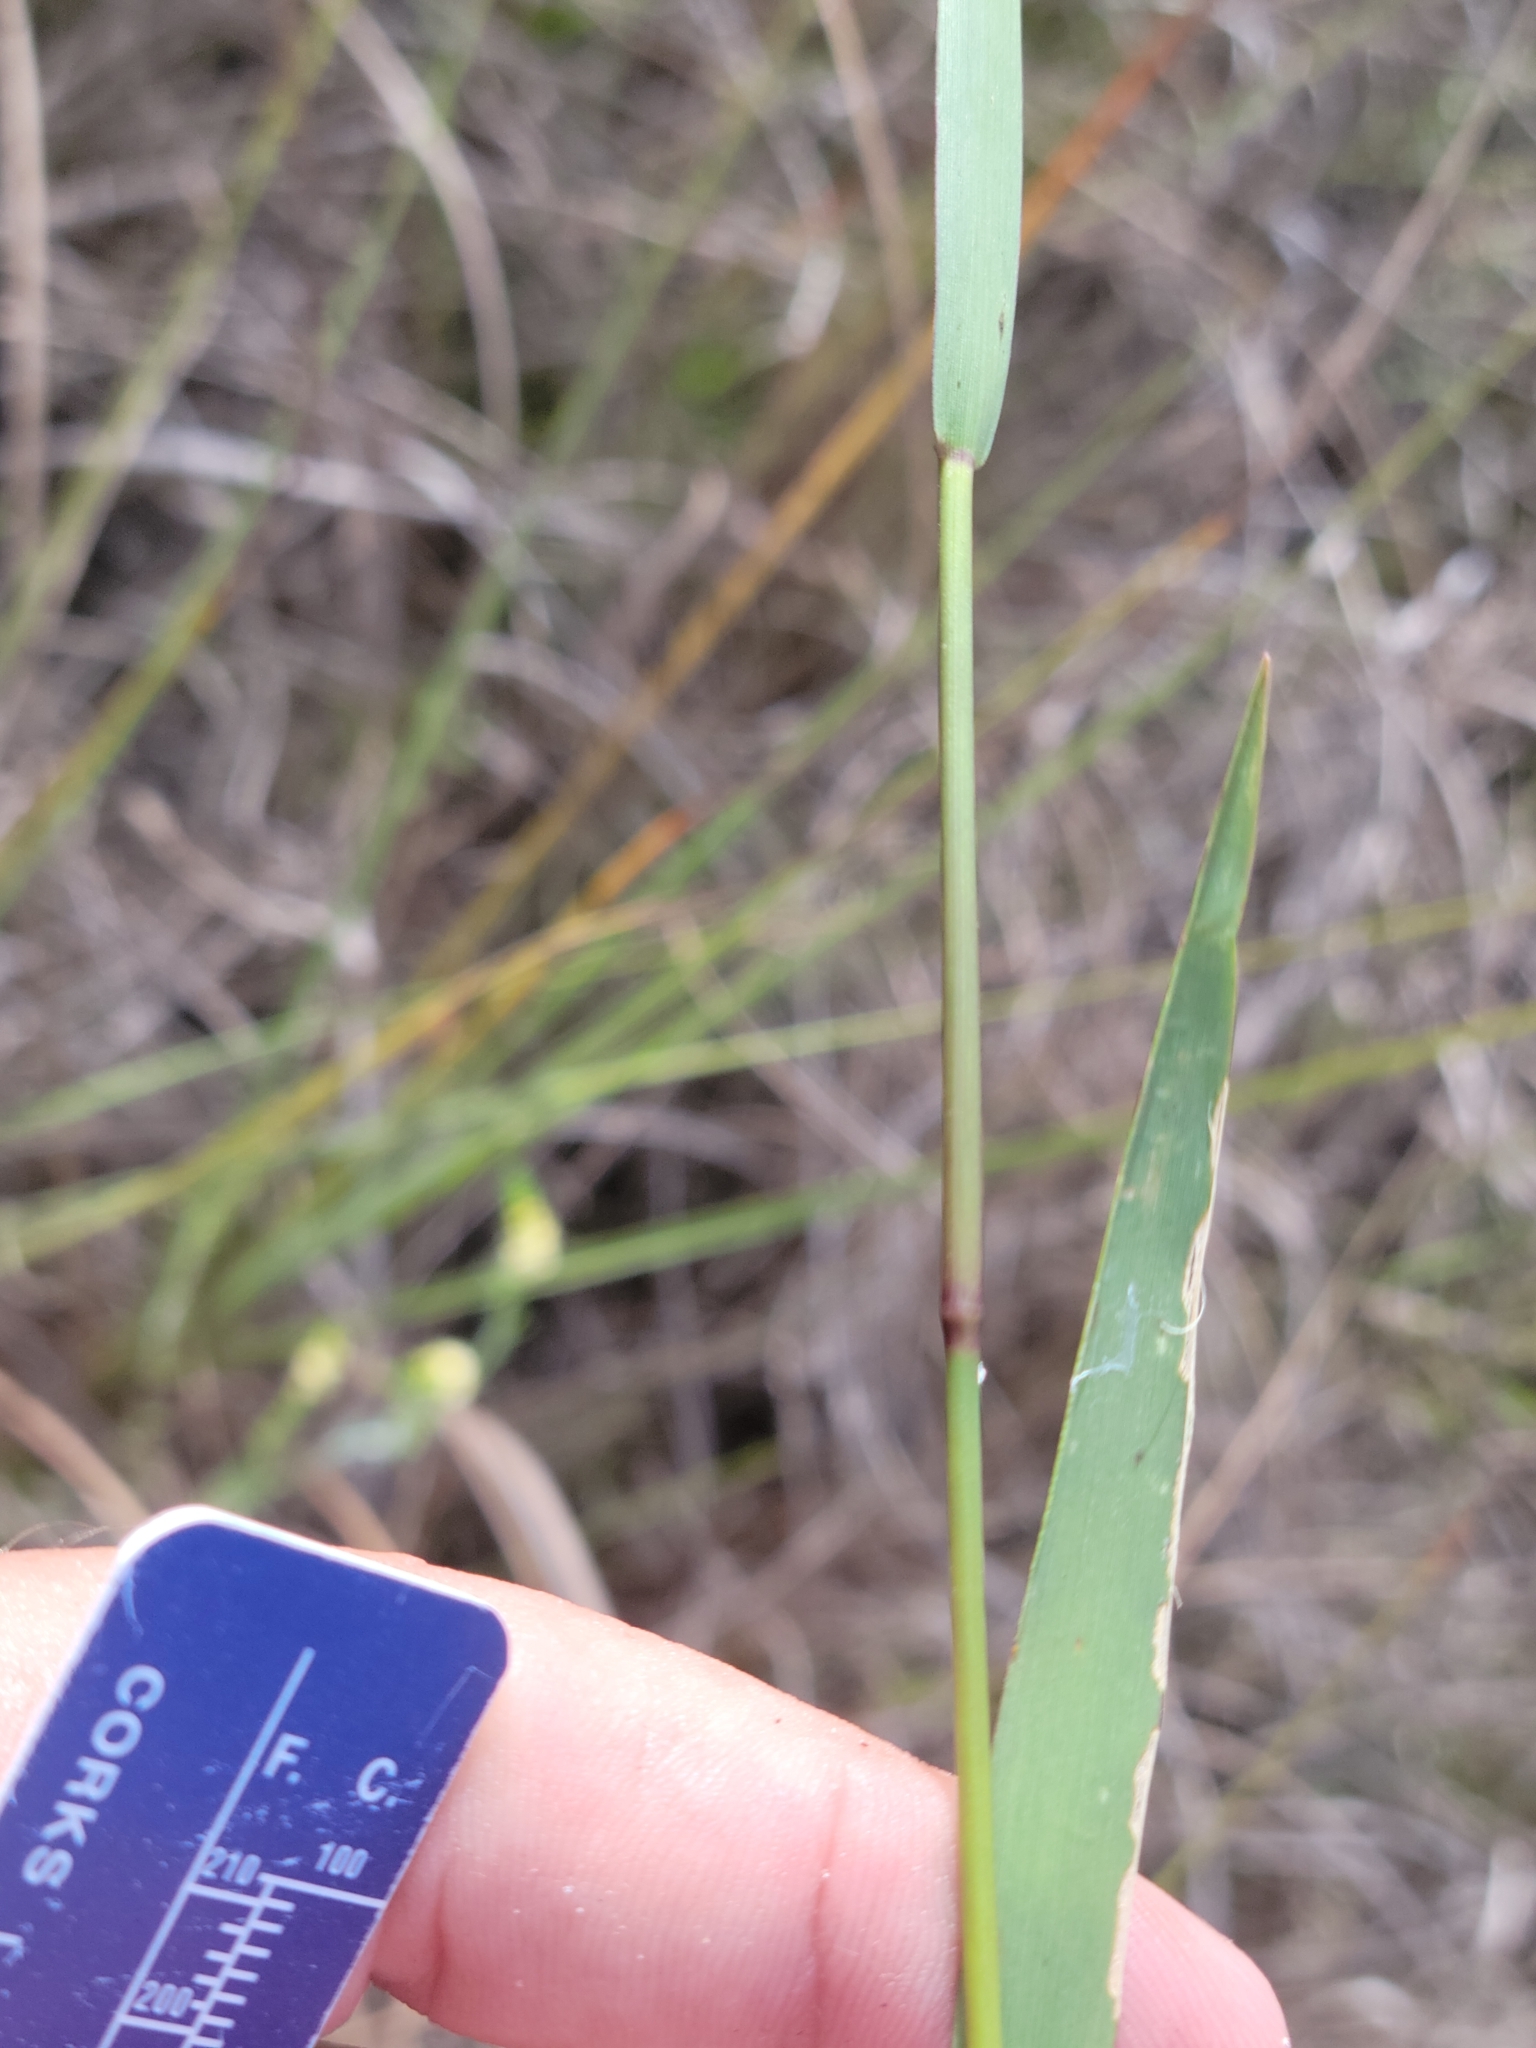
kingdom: Plantae
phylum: Tracheophyta
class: Liliopsida
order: Poales
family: Poaceae
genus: Dichanthelium
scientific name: Dichanthelium caerulescens
